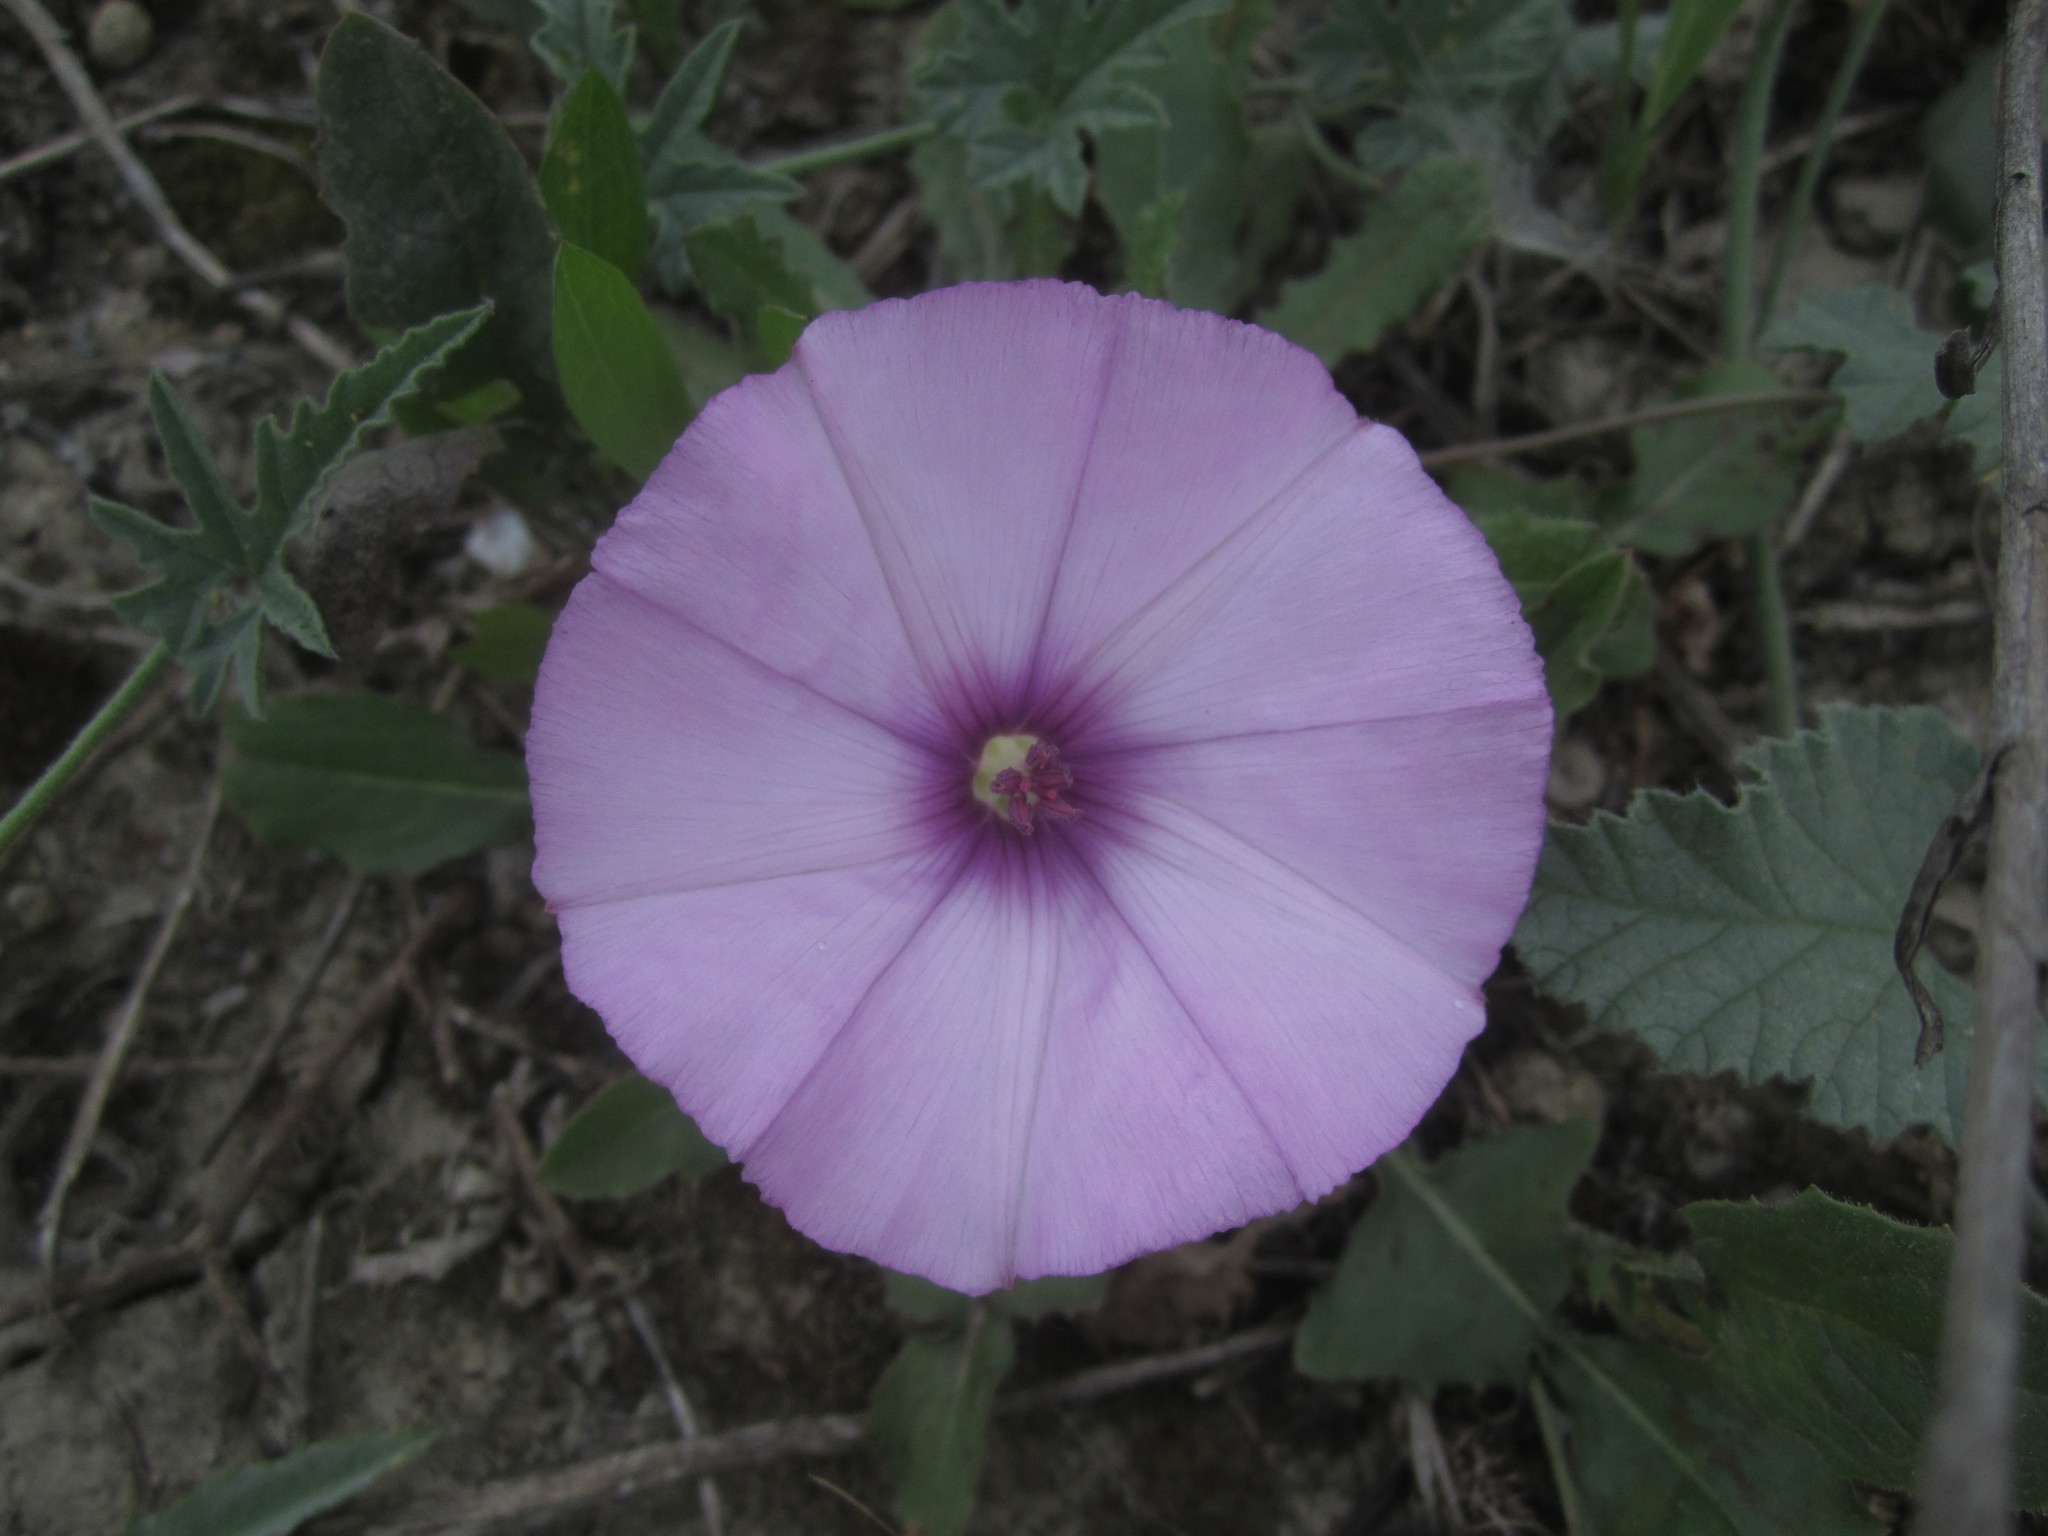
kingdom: Plantae
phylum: Tracheophyta
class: Magnoliopsida
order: Solanales
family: Convolvulaceae
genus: Convolvulus
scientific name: Convolvulus althaeoides
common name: Mallow bindweed
